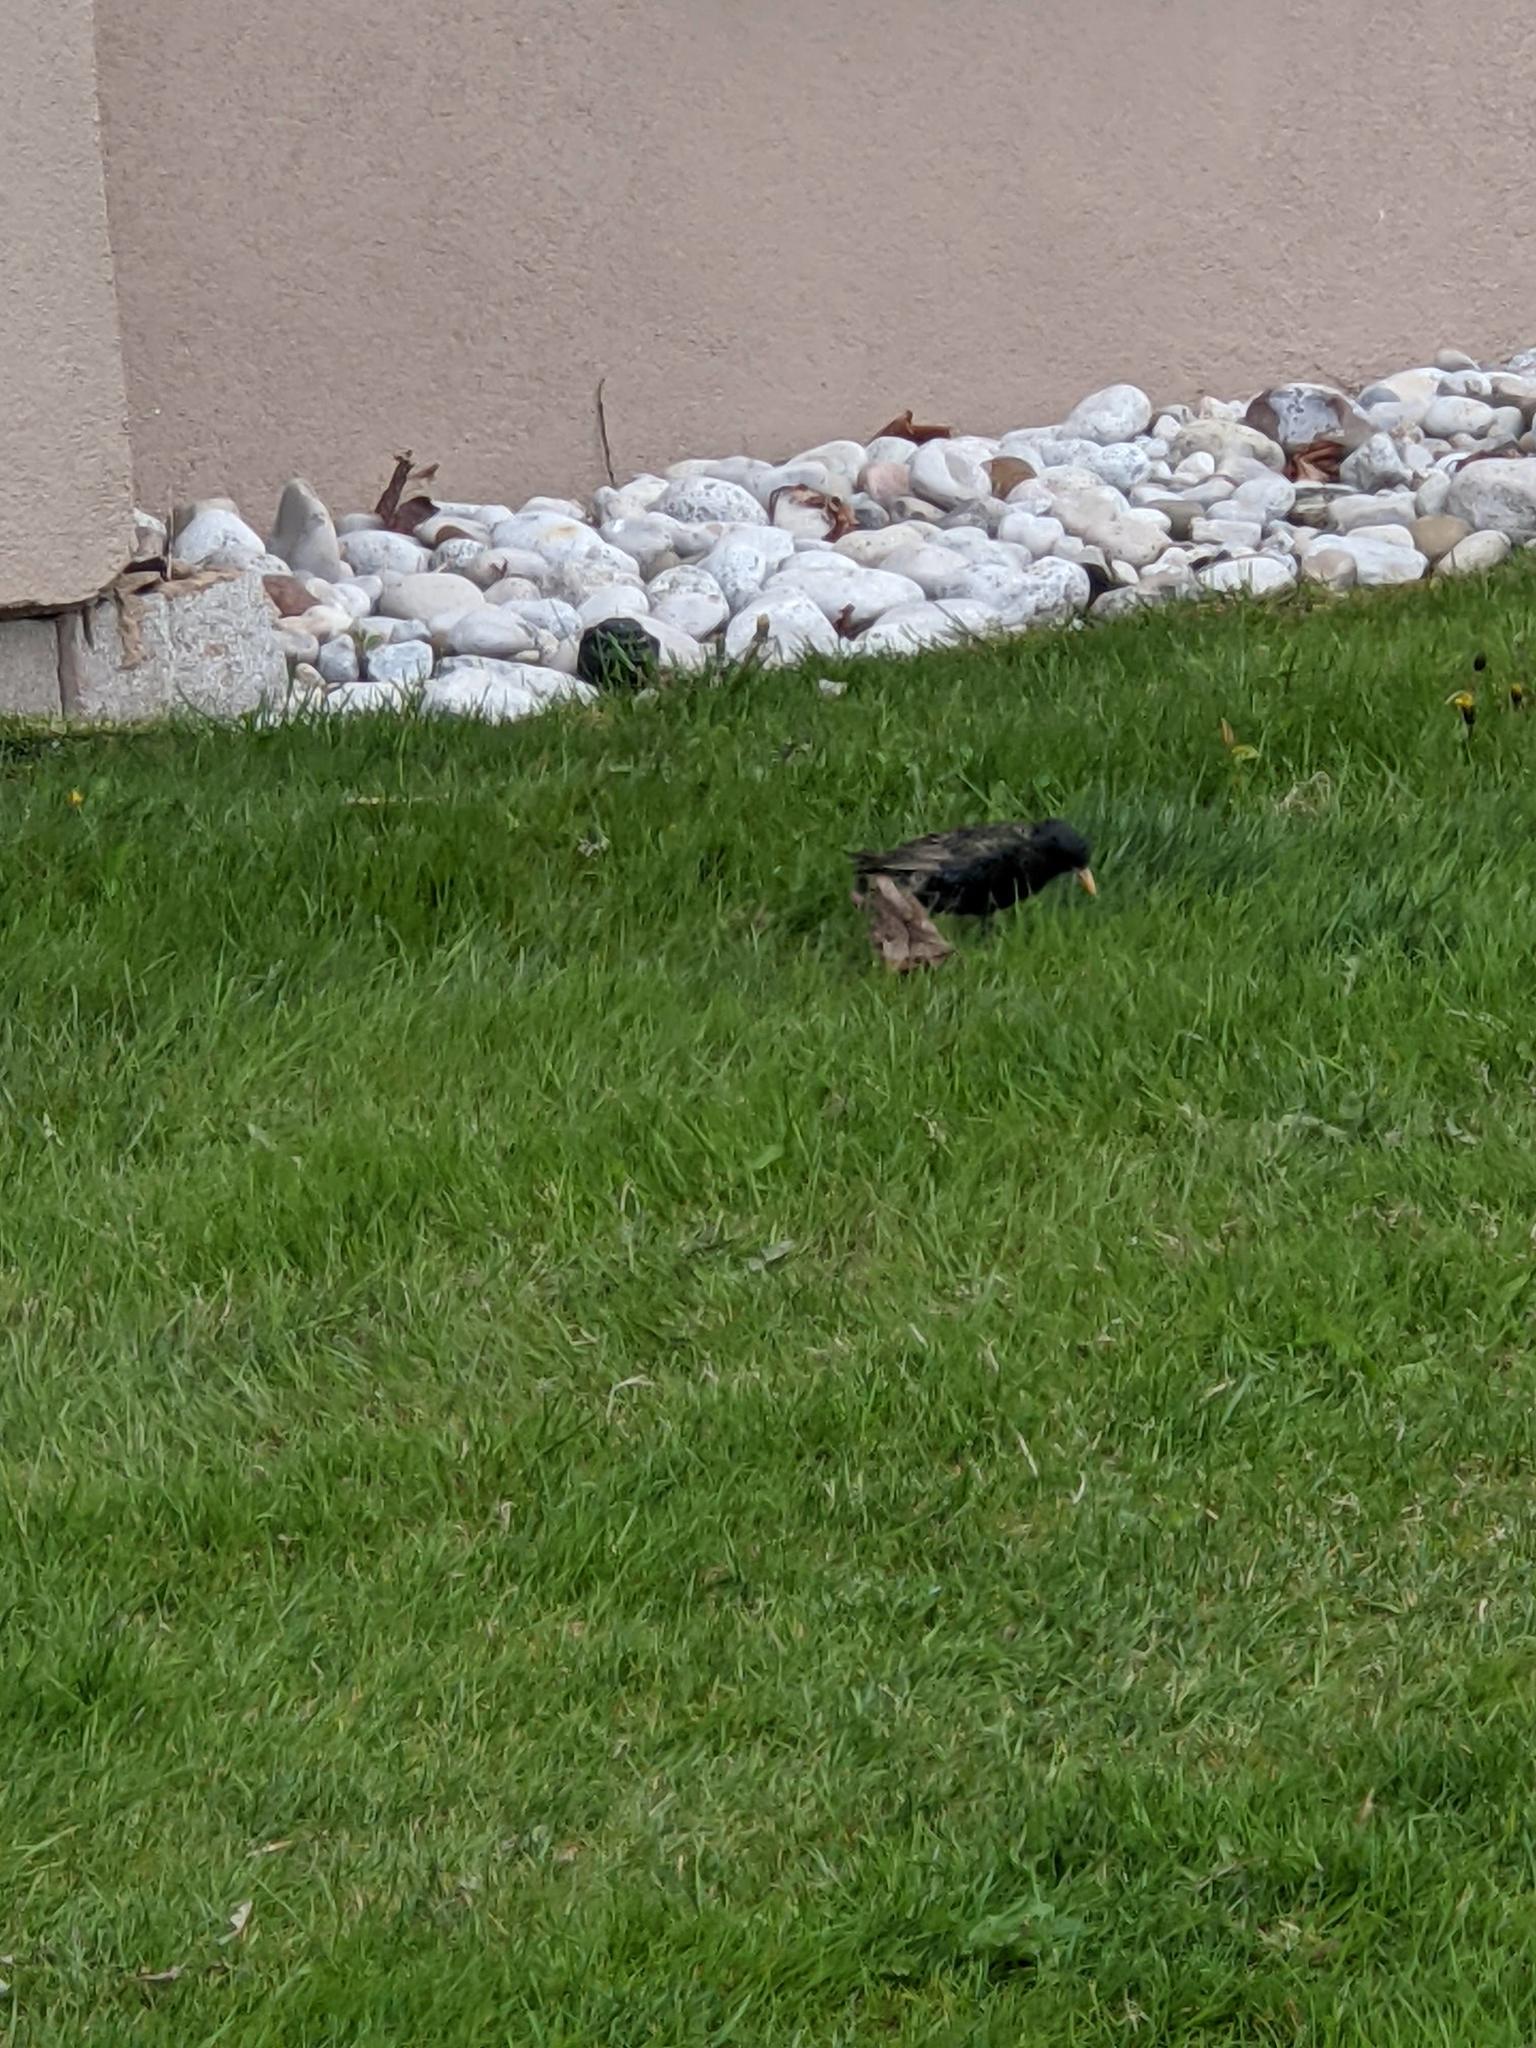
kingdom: Animalia
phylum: Chordata
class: Aves
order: Passeriformes
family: Sturnidae
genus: Sturnus
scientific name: Sturnus vulgaris
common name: Common starling
